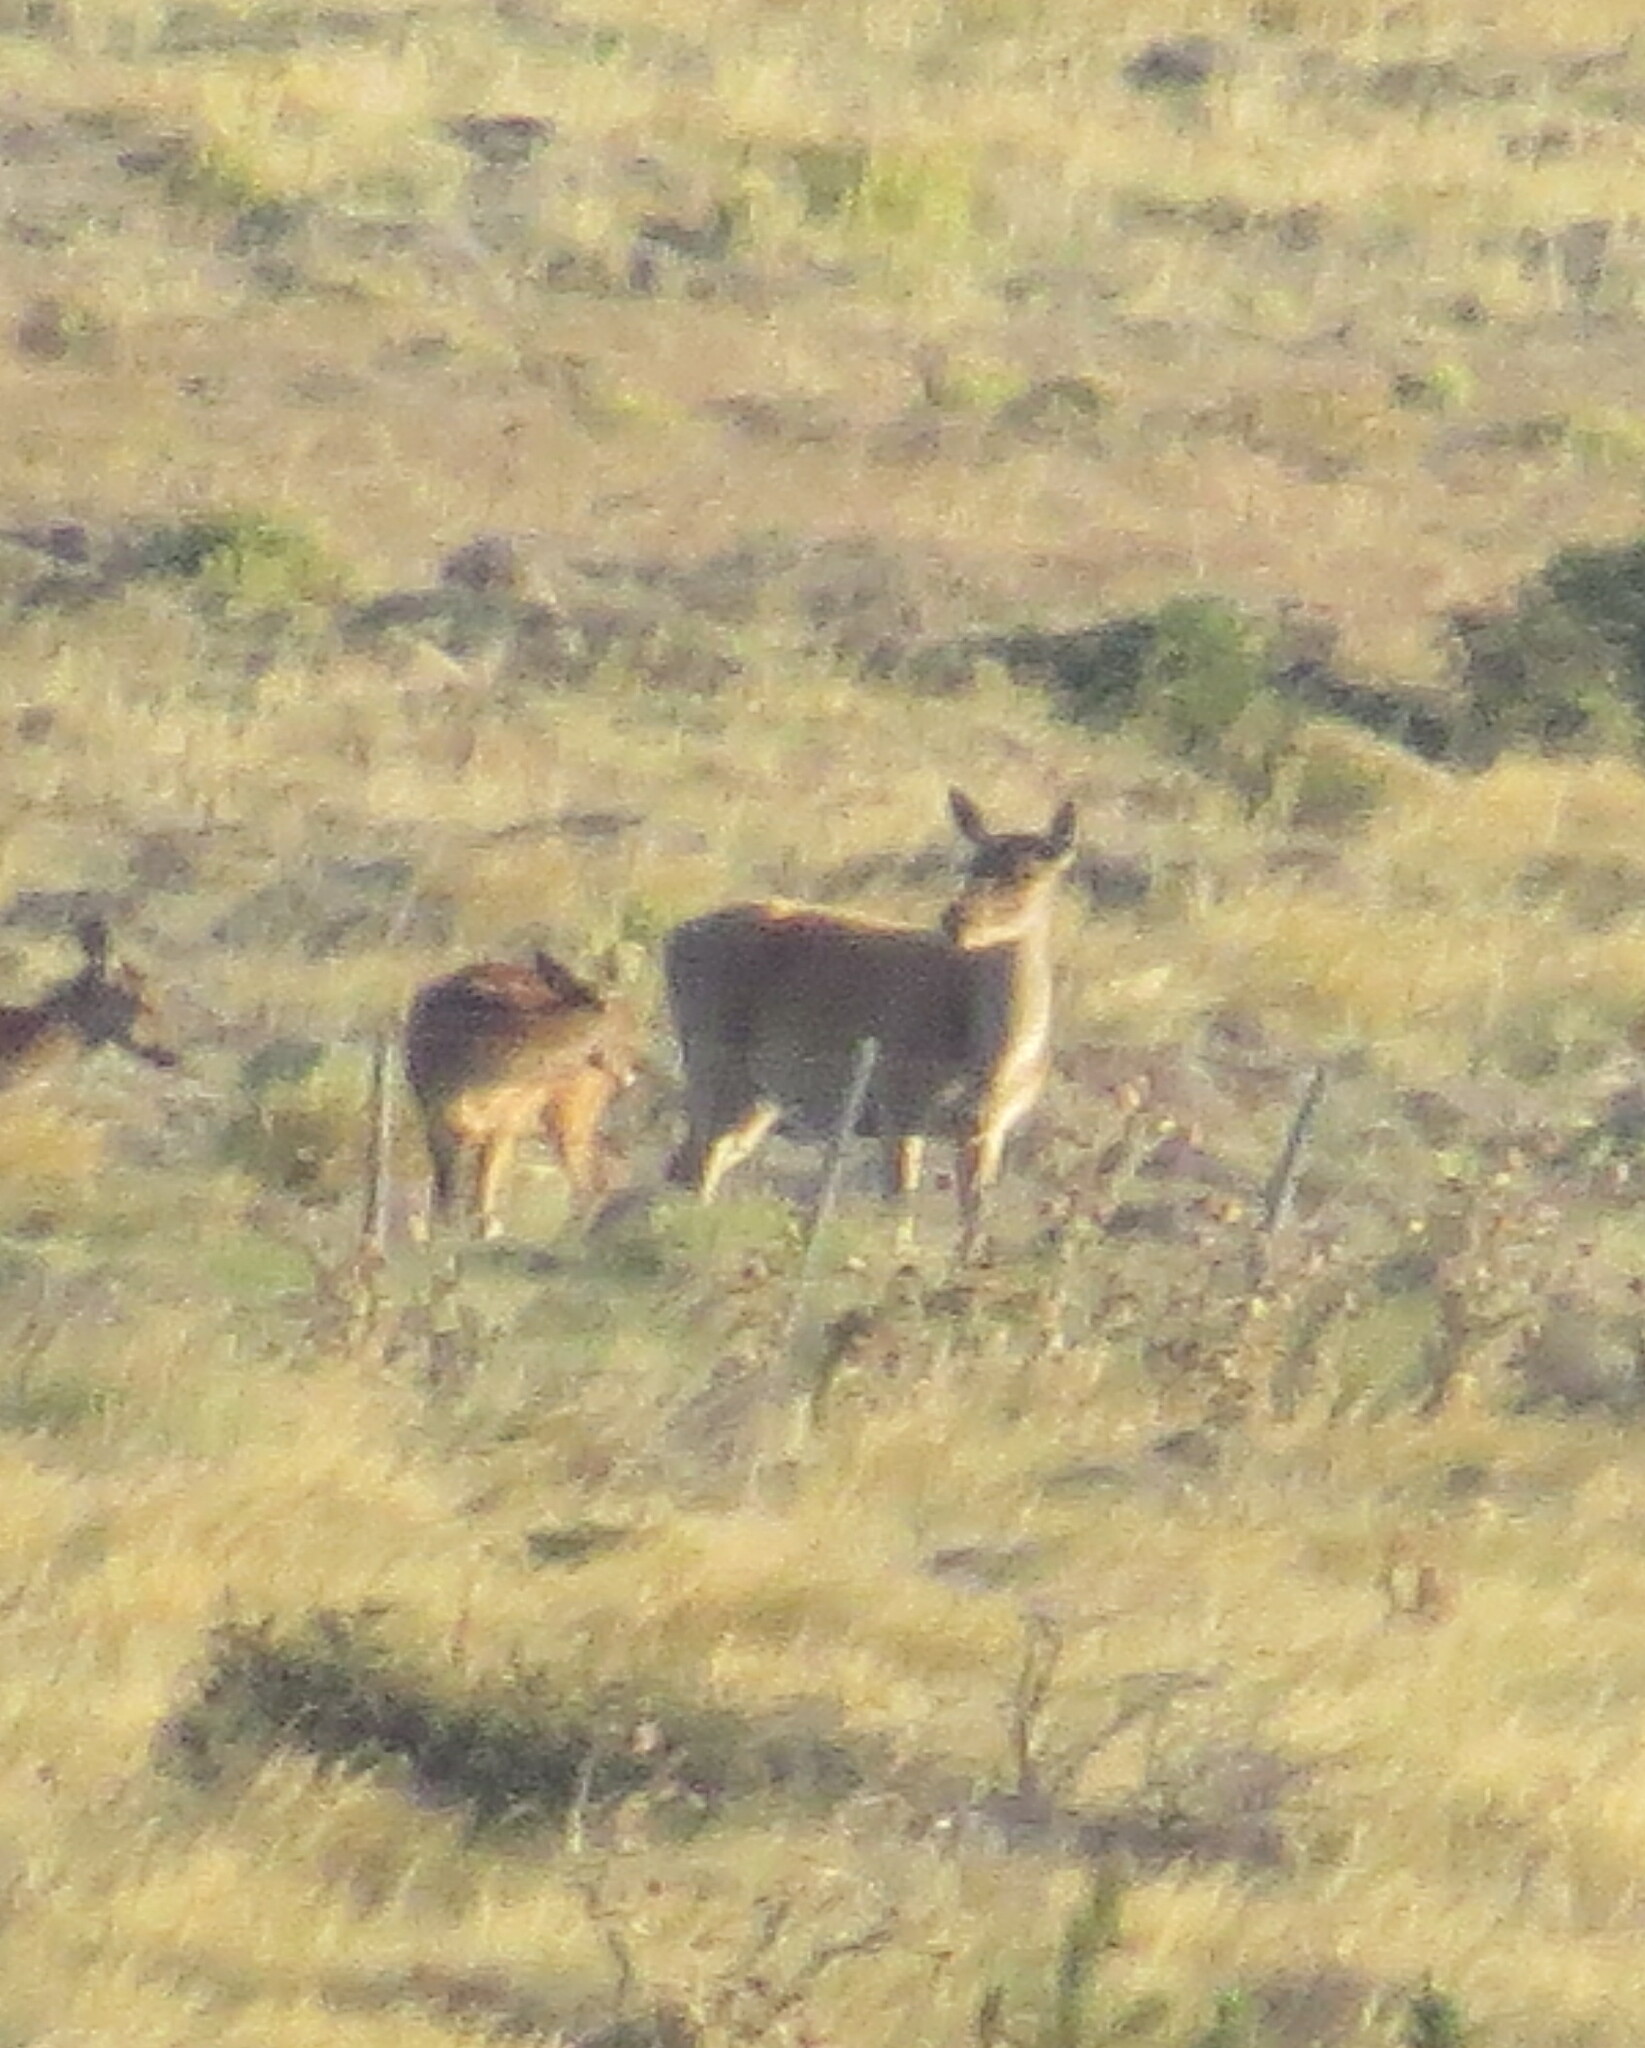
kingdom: Animalia
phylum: Chordata
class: Mammalia
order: Artiodactyla
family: Cervidae
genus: Cervus
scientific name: Cervus elaphus
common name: Red deer
